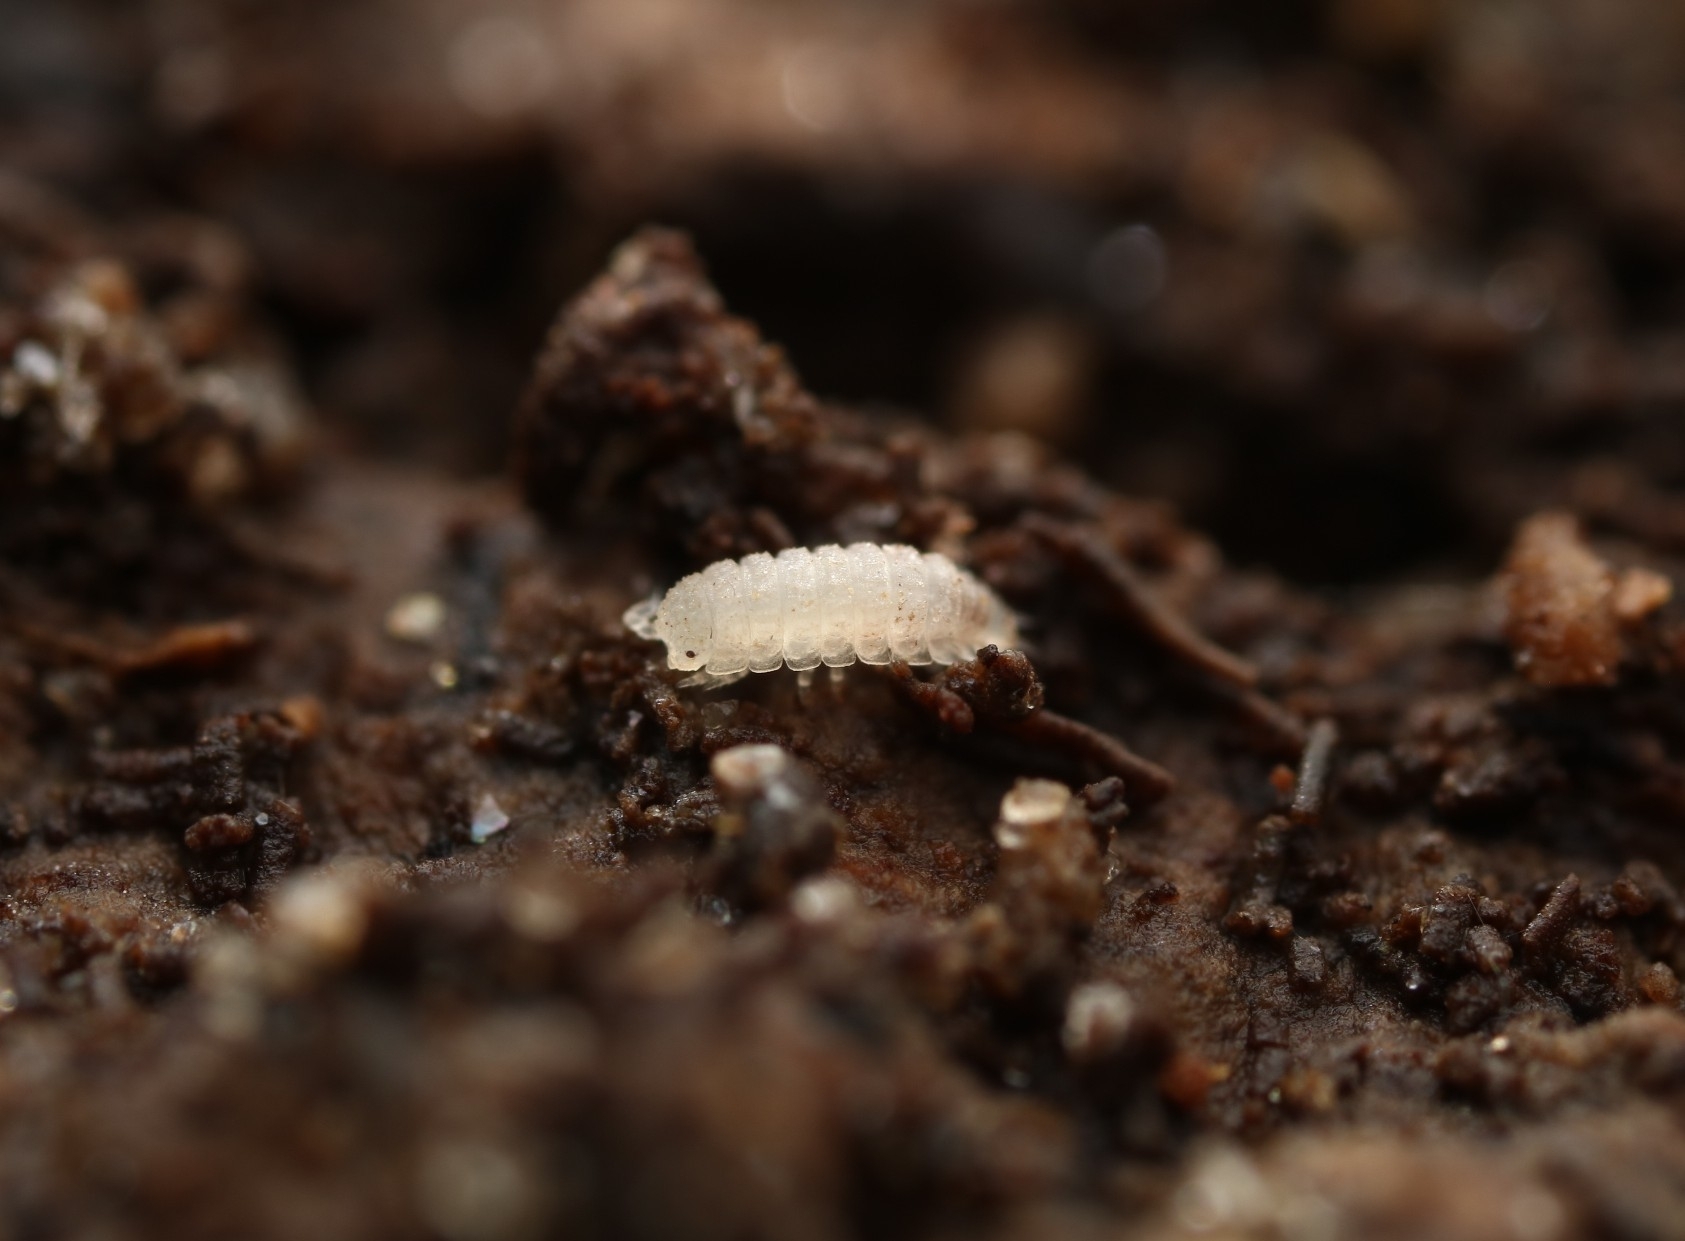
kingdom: Animalia
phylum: Arthropoda
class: Malacostraca
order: Isopoda
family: Trichoniscidae
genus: Haplophthalmus
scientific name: Haplophthalmus danicus
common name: Pillbug
